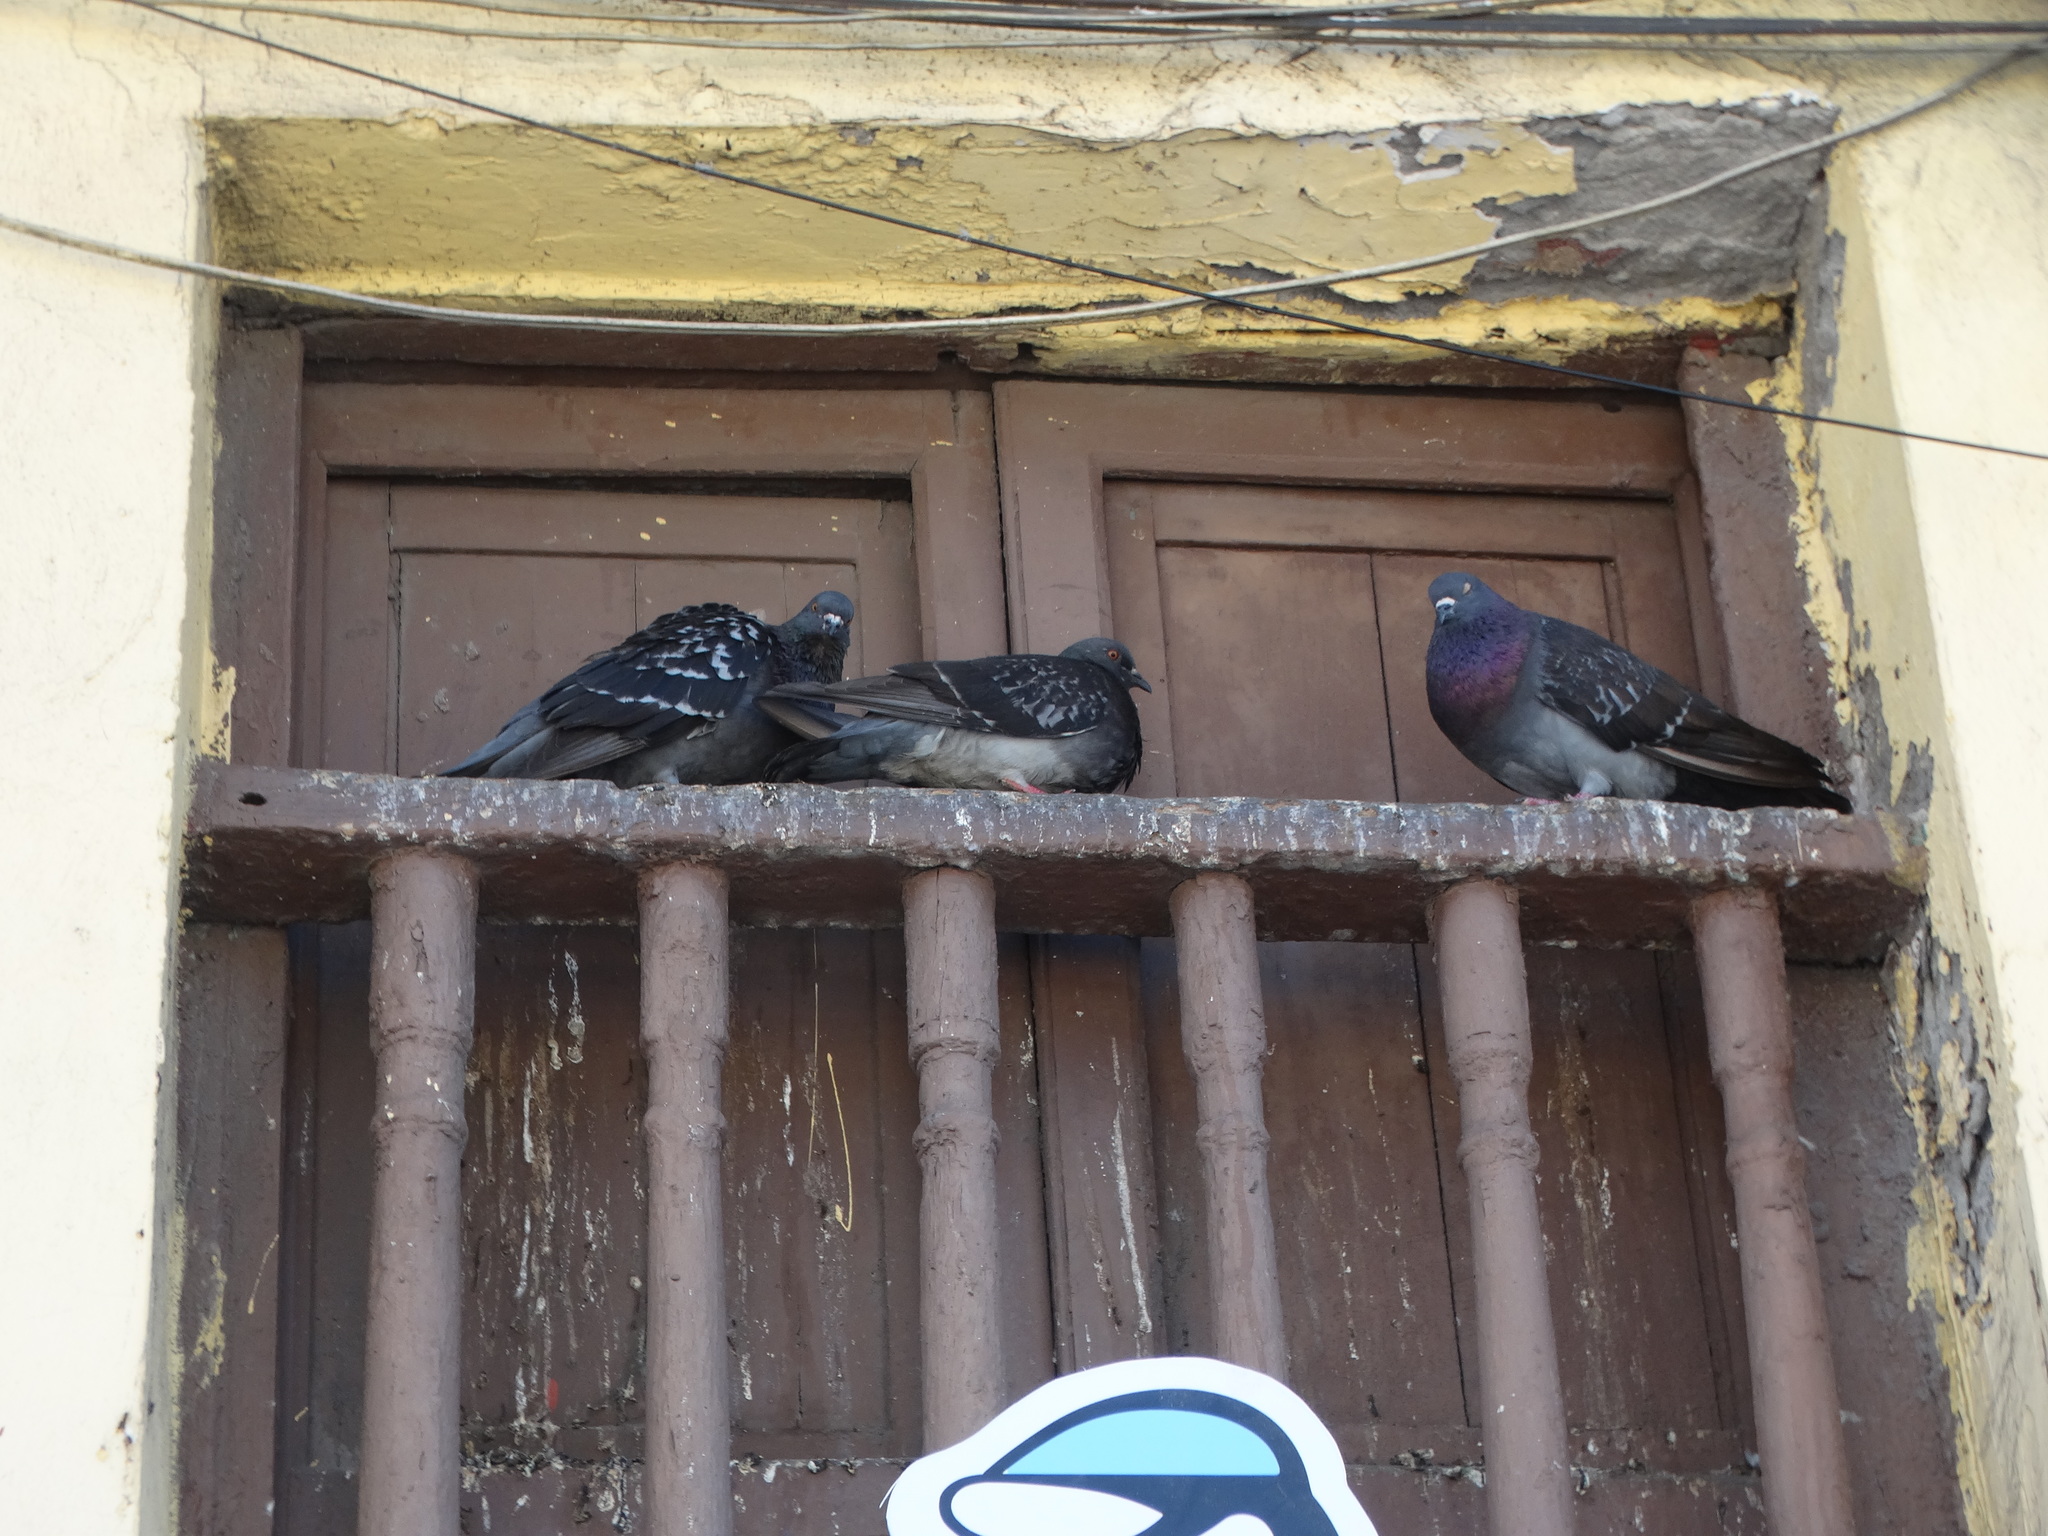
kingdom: Animalia
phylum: Chordata
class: Aves
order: Columbiformes
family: Columbidae
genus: Columba
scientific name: Columba livia
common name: Rock pigeon
